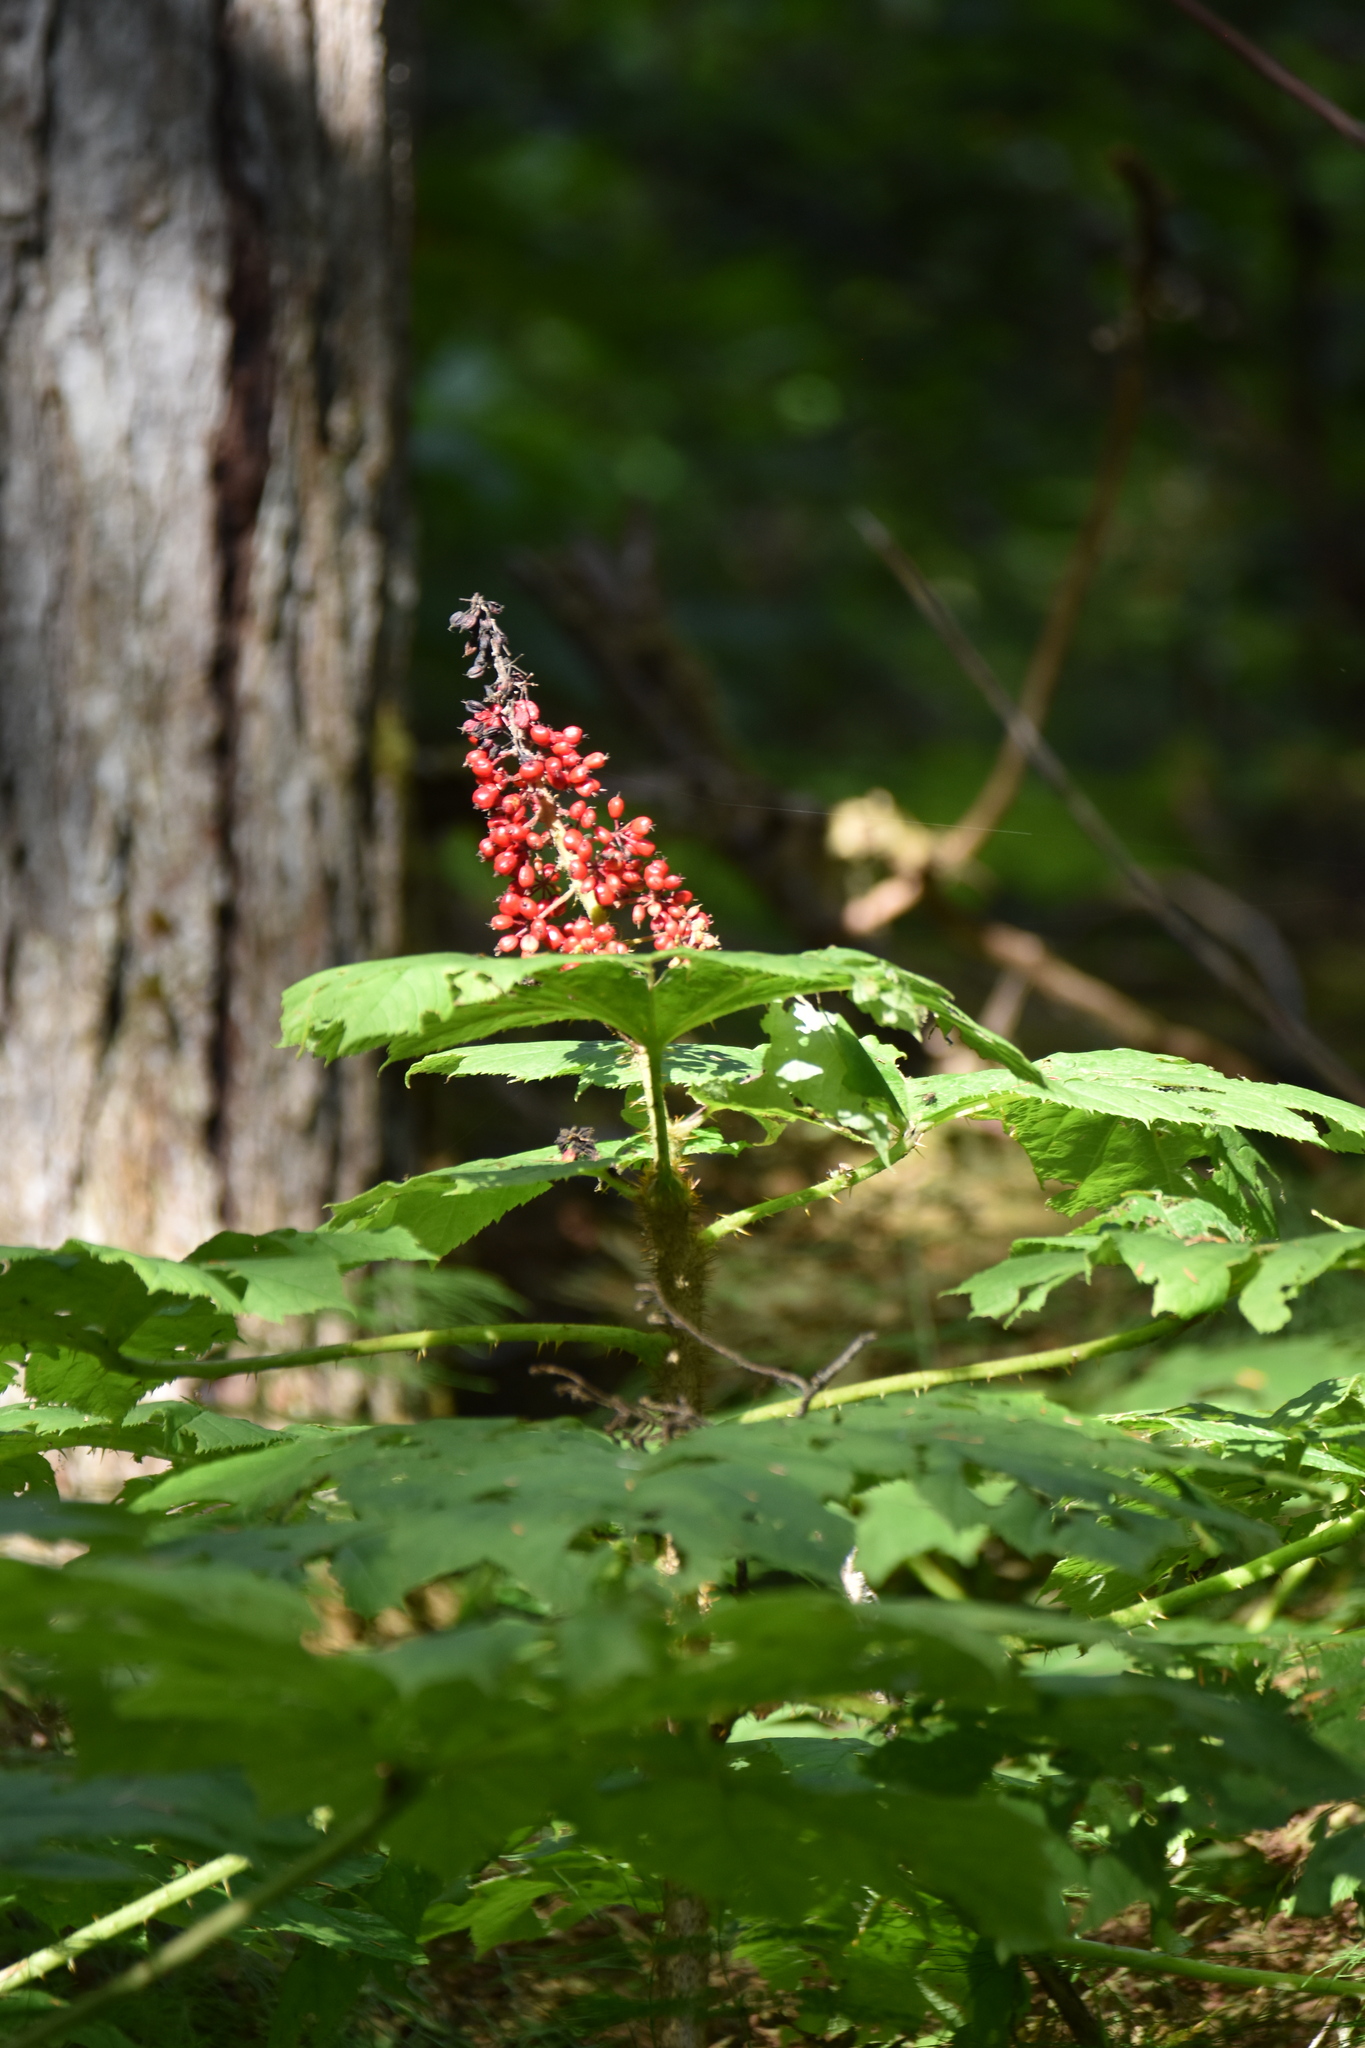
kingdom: Plantae
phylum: Tracheophyta
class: Magnoliopsida
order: Apiales
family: Araliaceae
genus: Oplopanax
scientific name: Oplopanax horridus
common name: Devil's walking-stick
